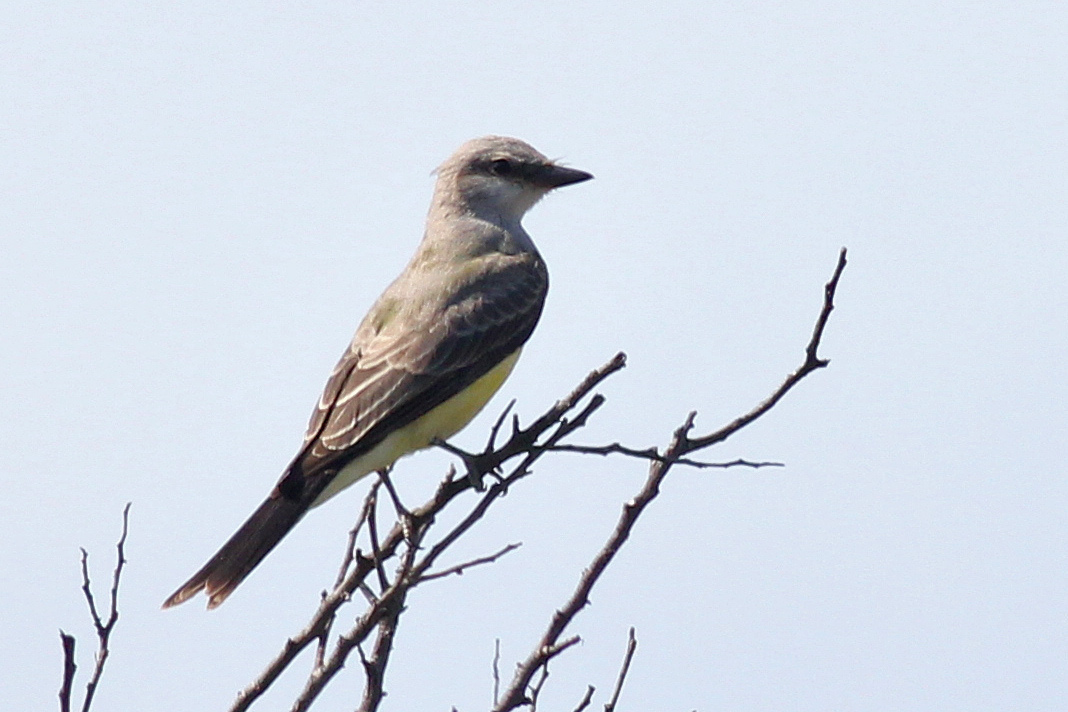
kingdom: Animalia
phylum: Chordata
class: Aves
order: Passeriformes
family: Tyrannidae
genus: Tyrannus
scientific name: Tyrannus melancholicus
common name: Tropical kingbird
